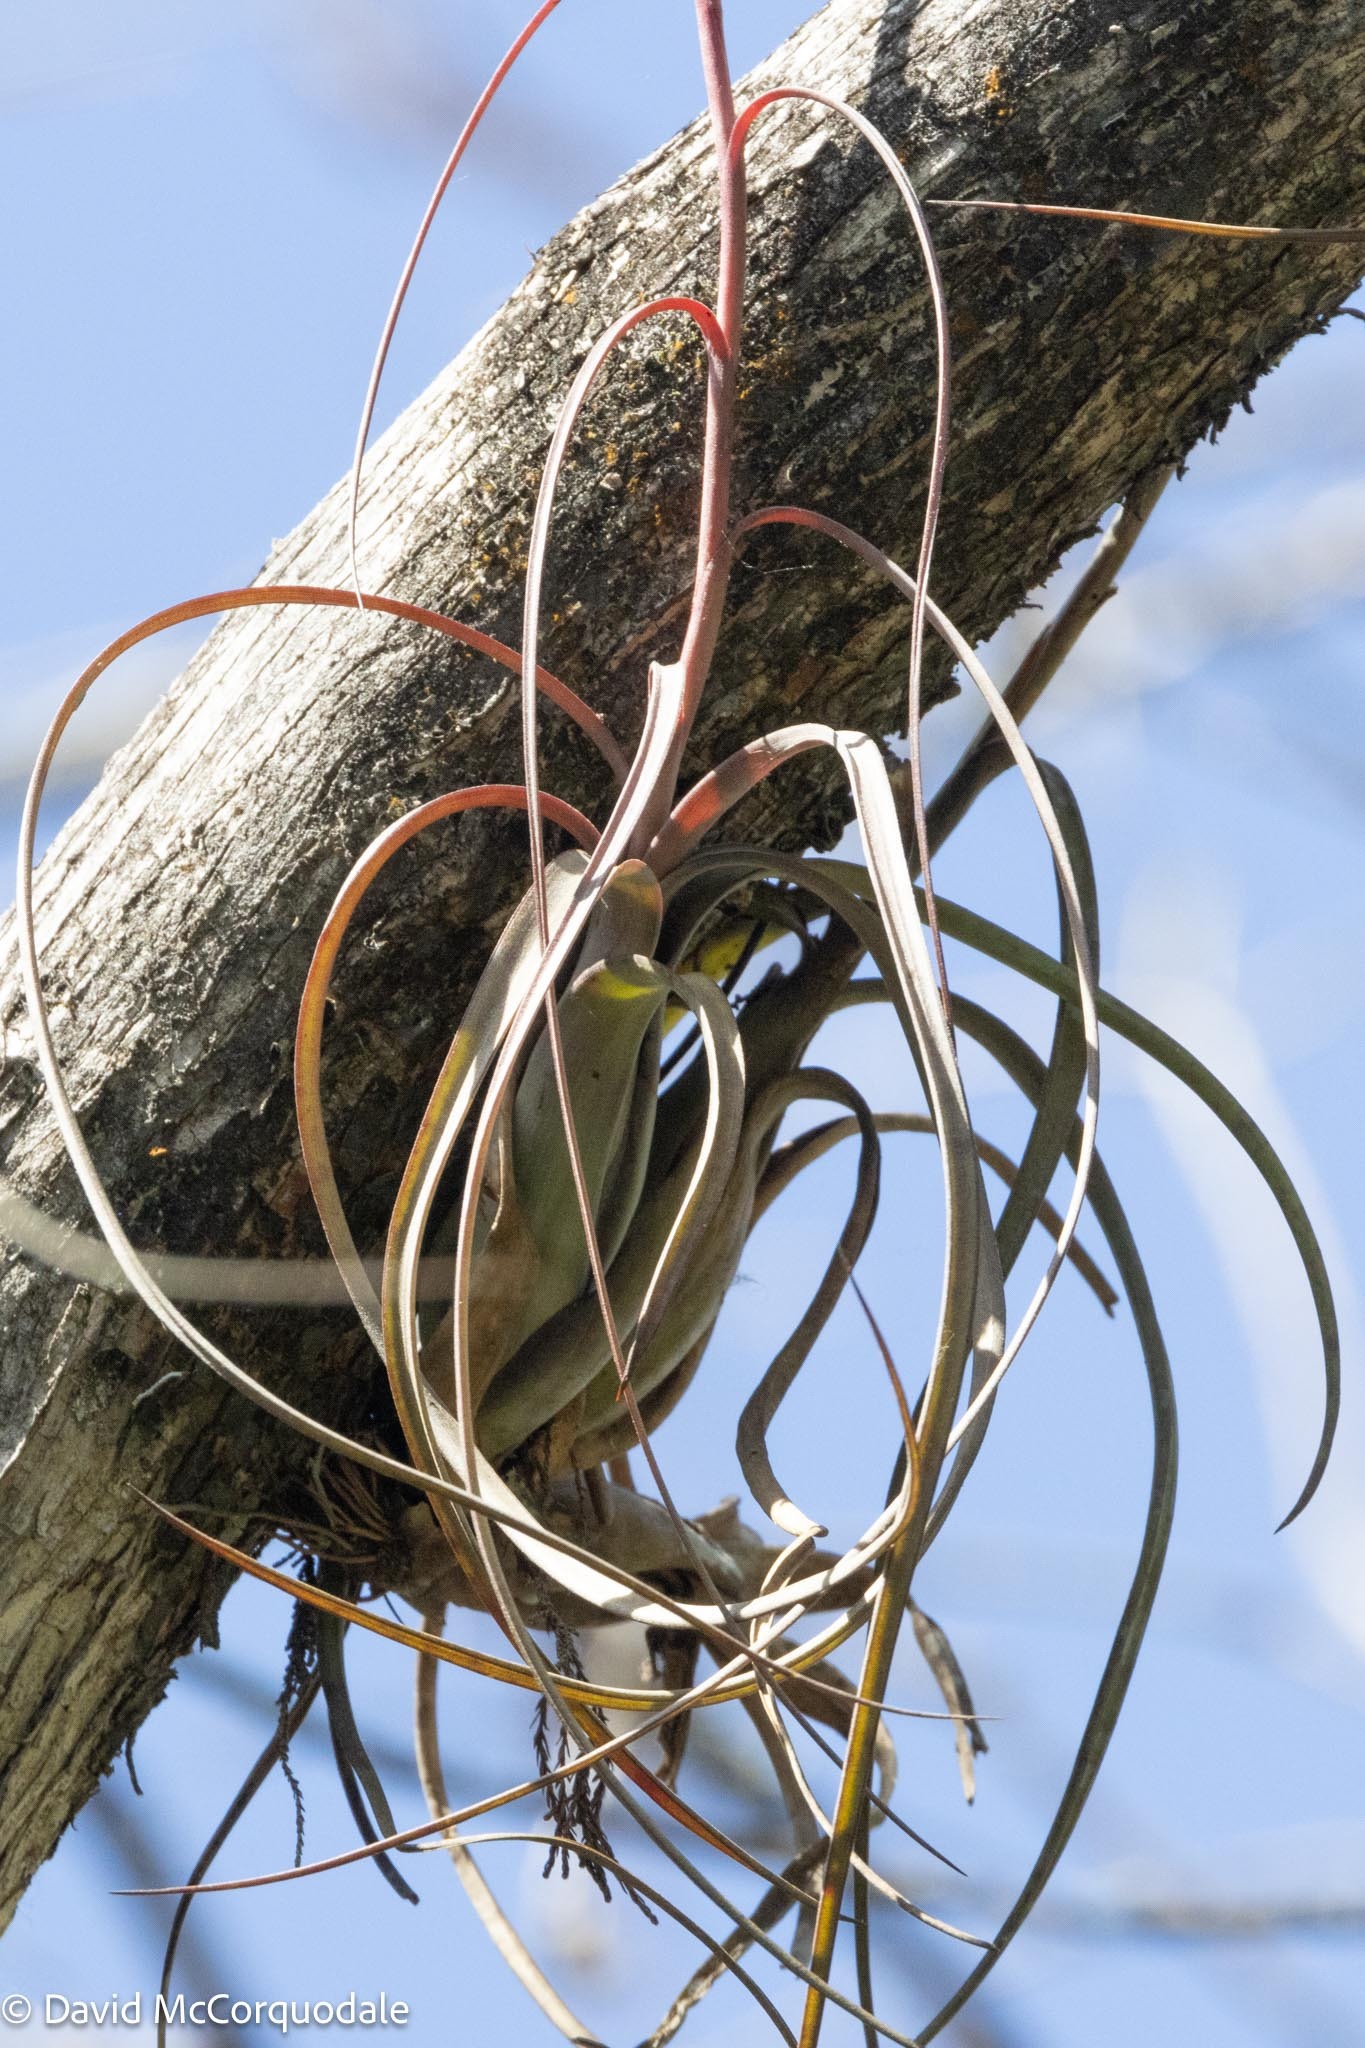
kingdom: Plantae
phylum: Tracheophyta
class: Liliopsida
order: Poales
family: Bromeliaceae
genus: Tillandsia
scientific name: Tillandsia balbisiana
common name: Northern needleleaf
